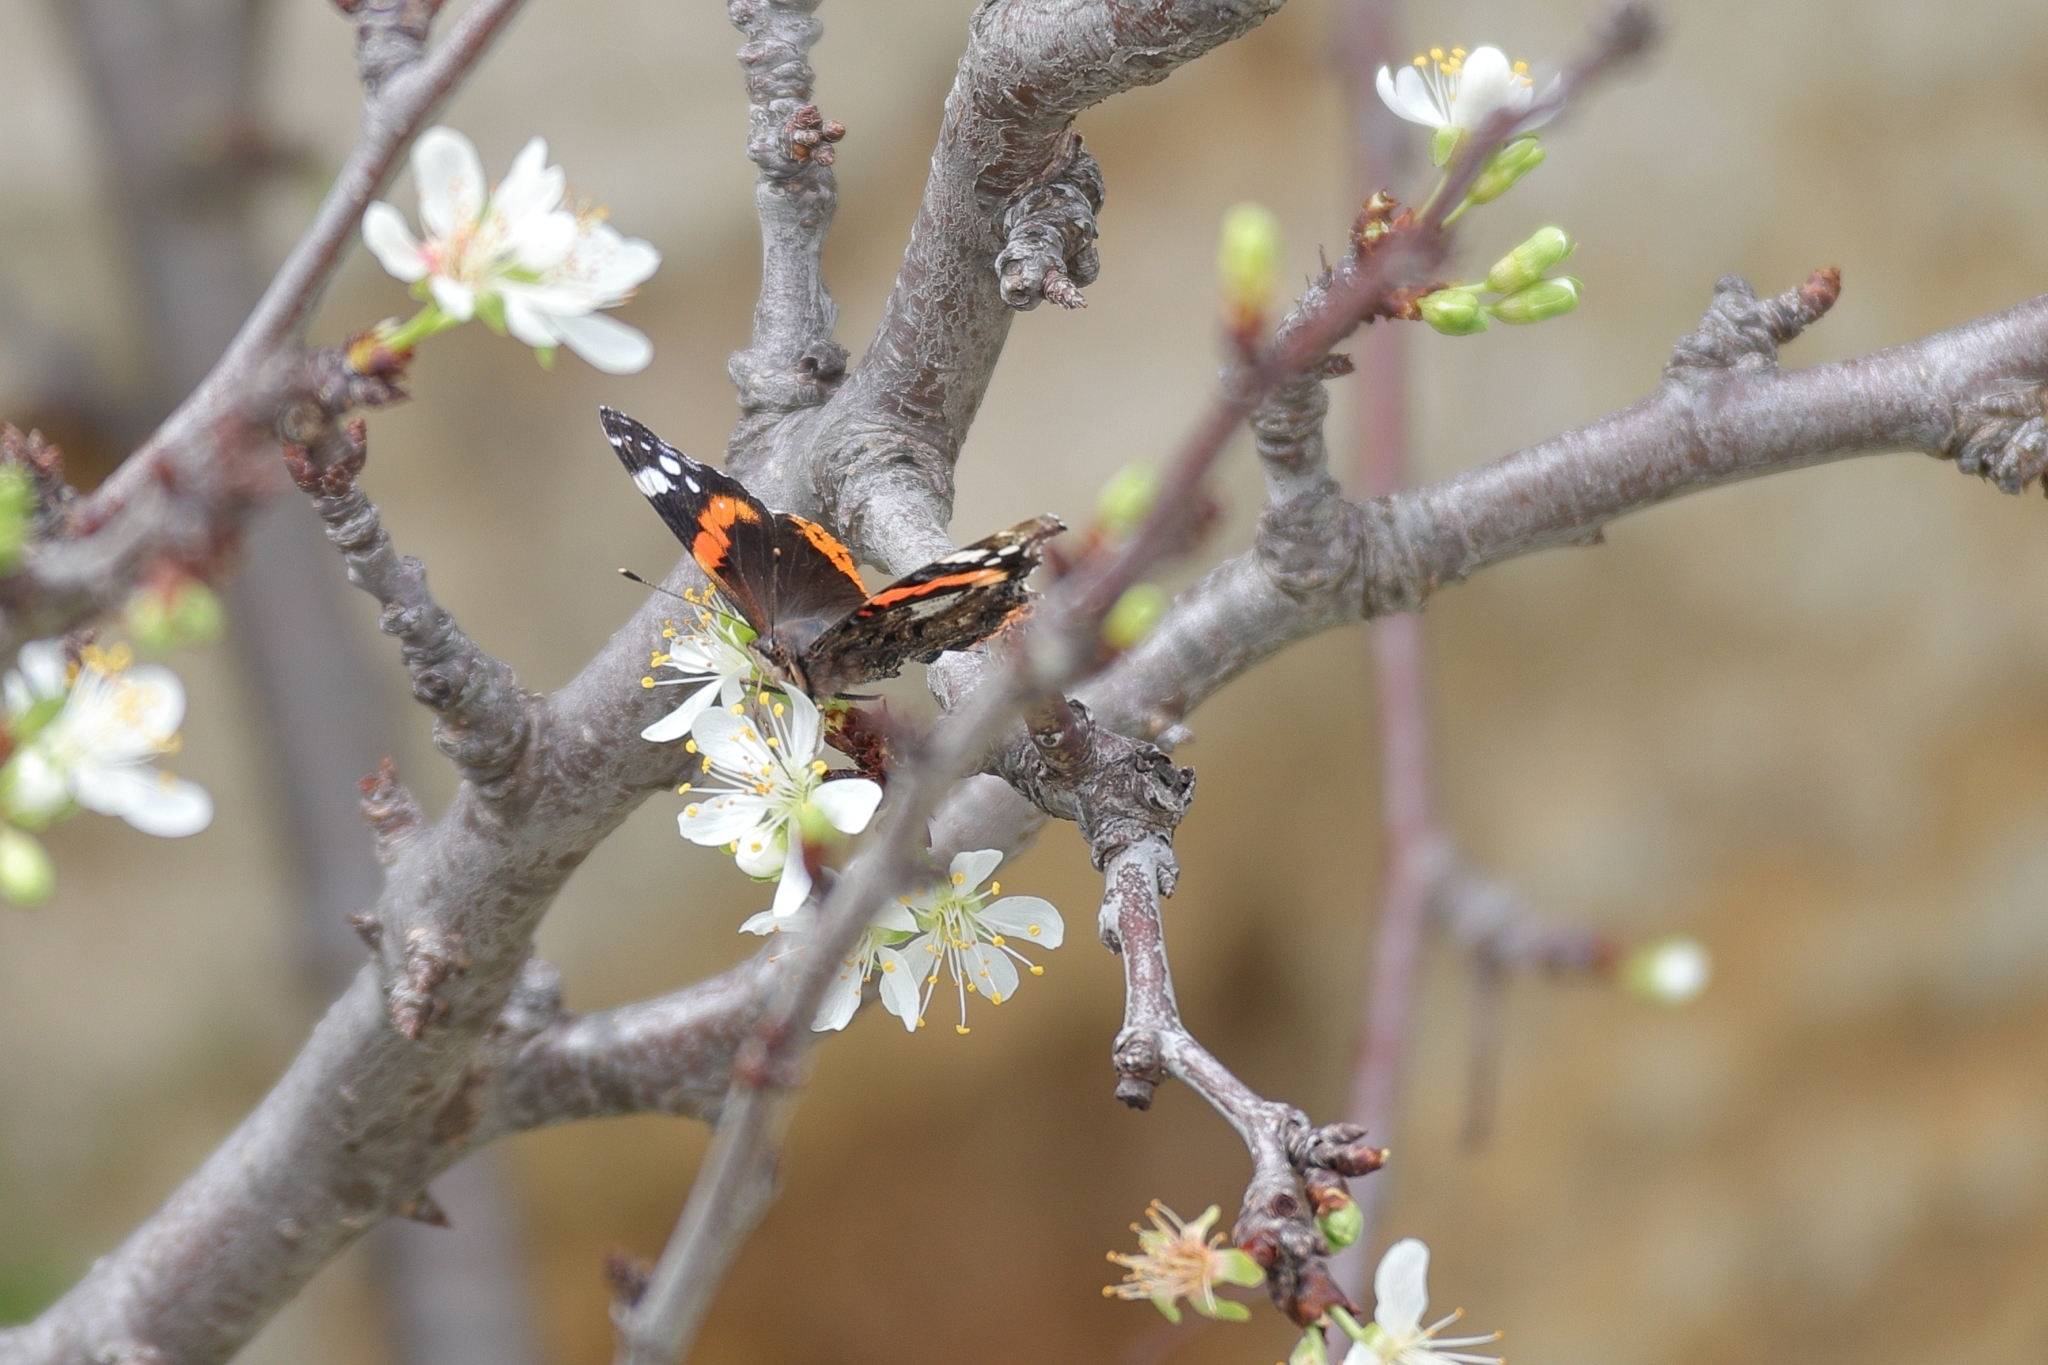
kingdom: Animalia
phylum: Arthropoda
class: Insecta
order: Lepidoptera
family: Nymphalidae
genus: Vanessa
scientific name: Vanessa atalanta
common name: Red admiral
